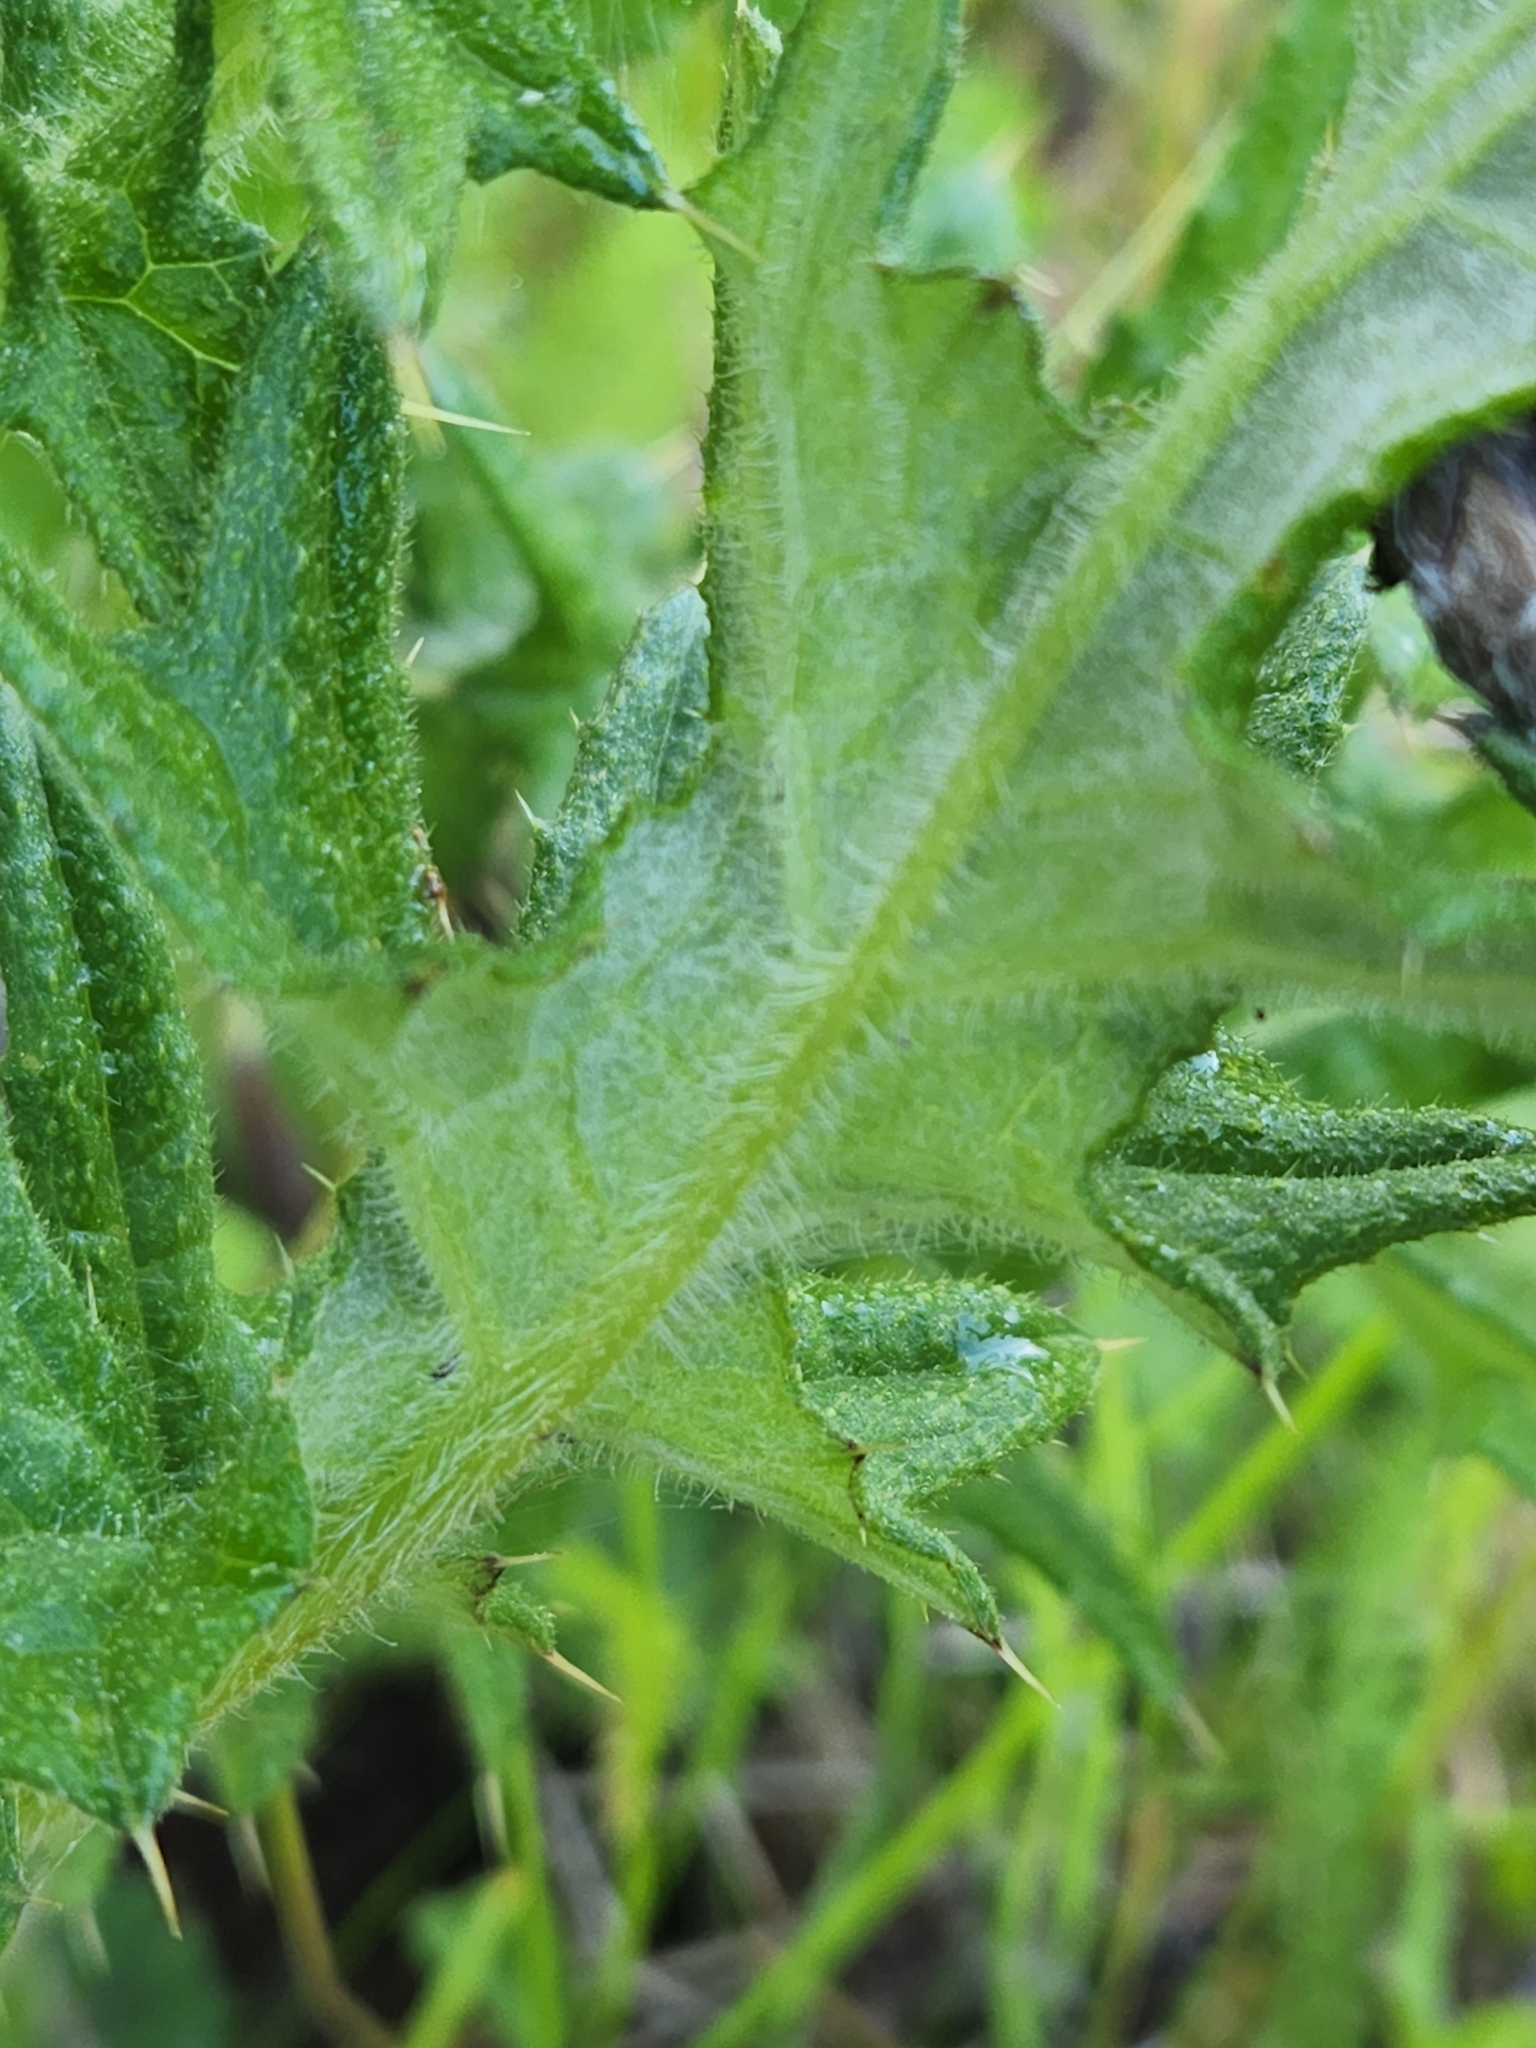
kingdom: Plantae
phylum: Tracheophyta
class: Magnoliopsida
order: Asterales
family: Asteraceae
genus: Cirsium
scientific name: Cirsium vulgare
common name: Bull thistle
